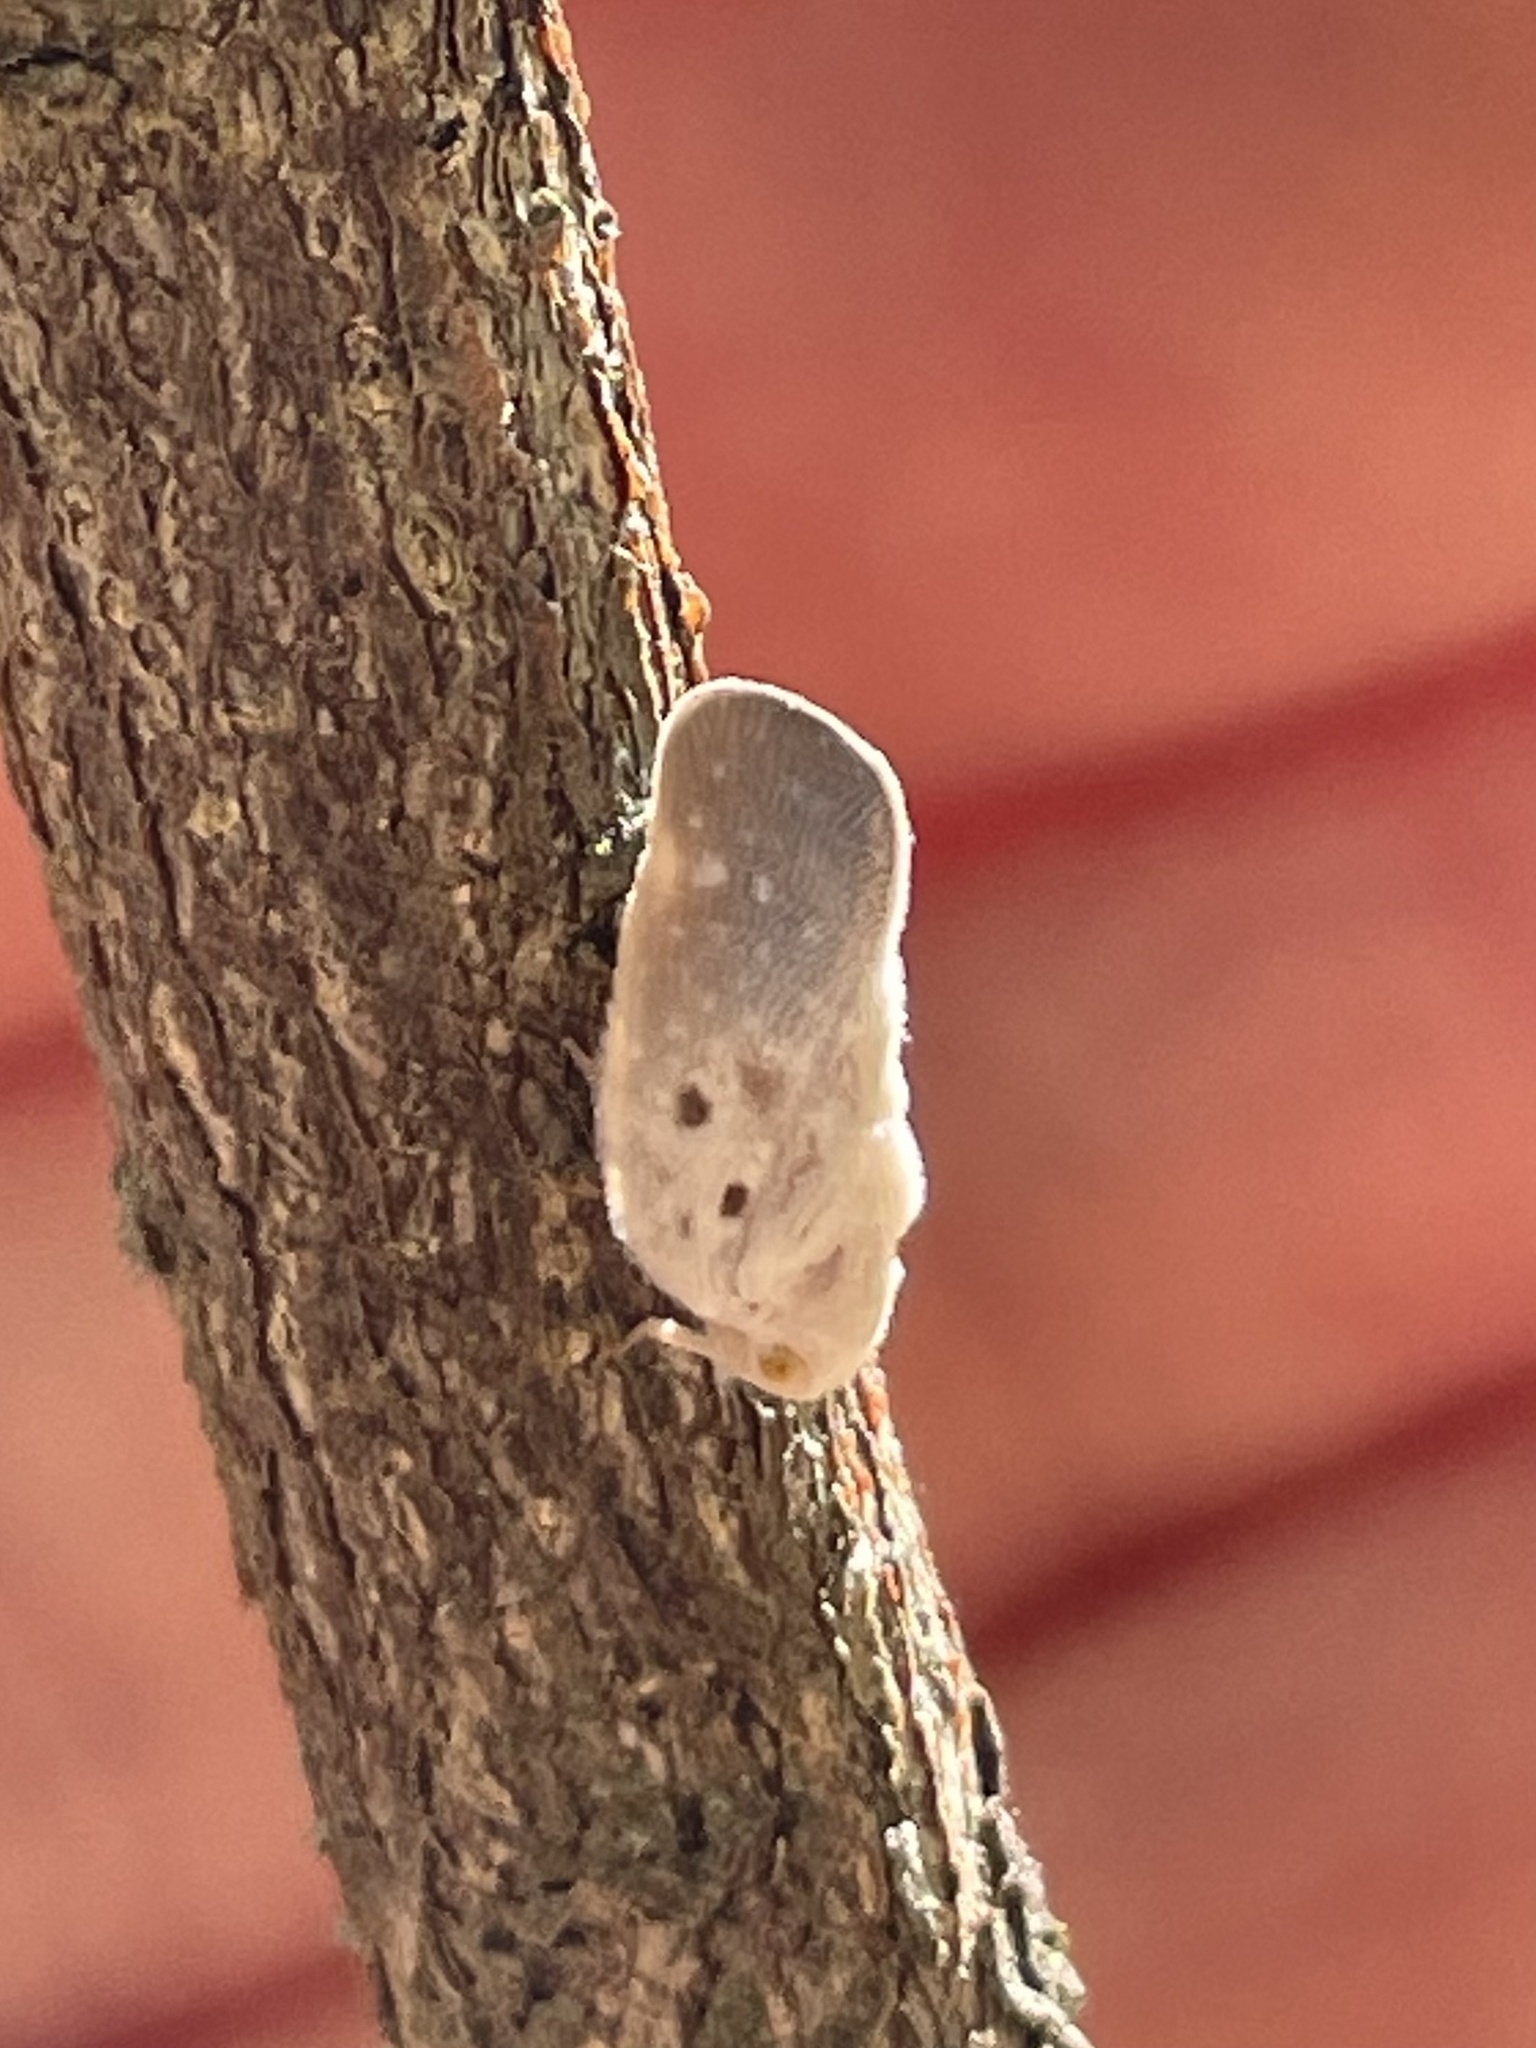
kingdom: Animalia
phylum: Arthropoda
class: Insecta
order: Hemiptera
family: Flatidae
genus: Metcalfa
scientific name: Metcalfa pruinosa
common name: Citrus flatid planthopper
